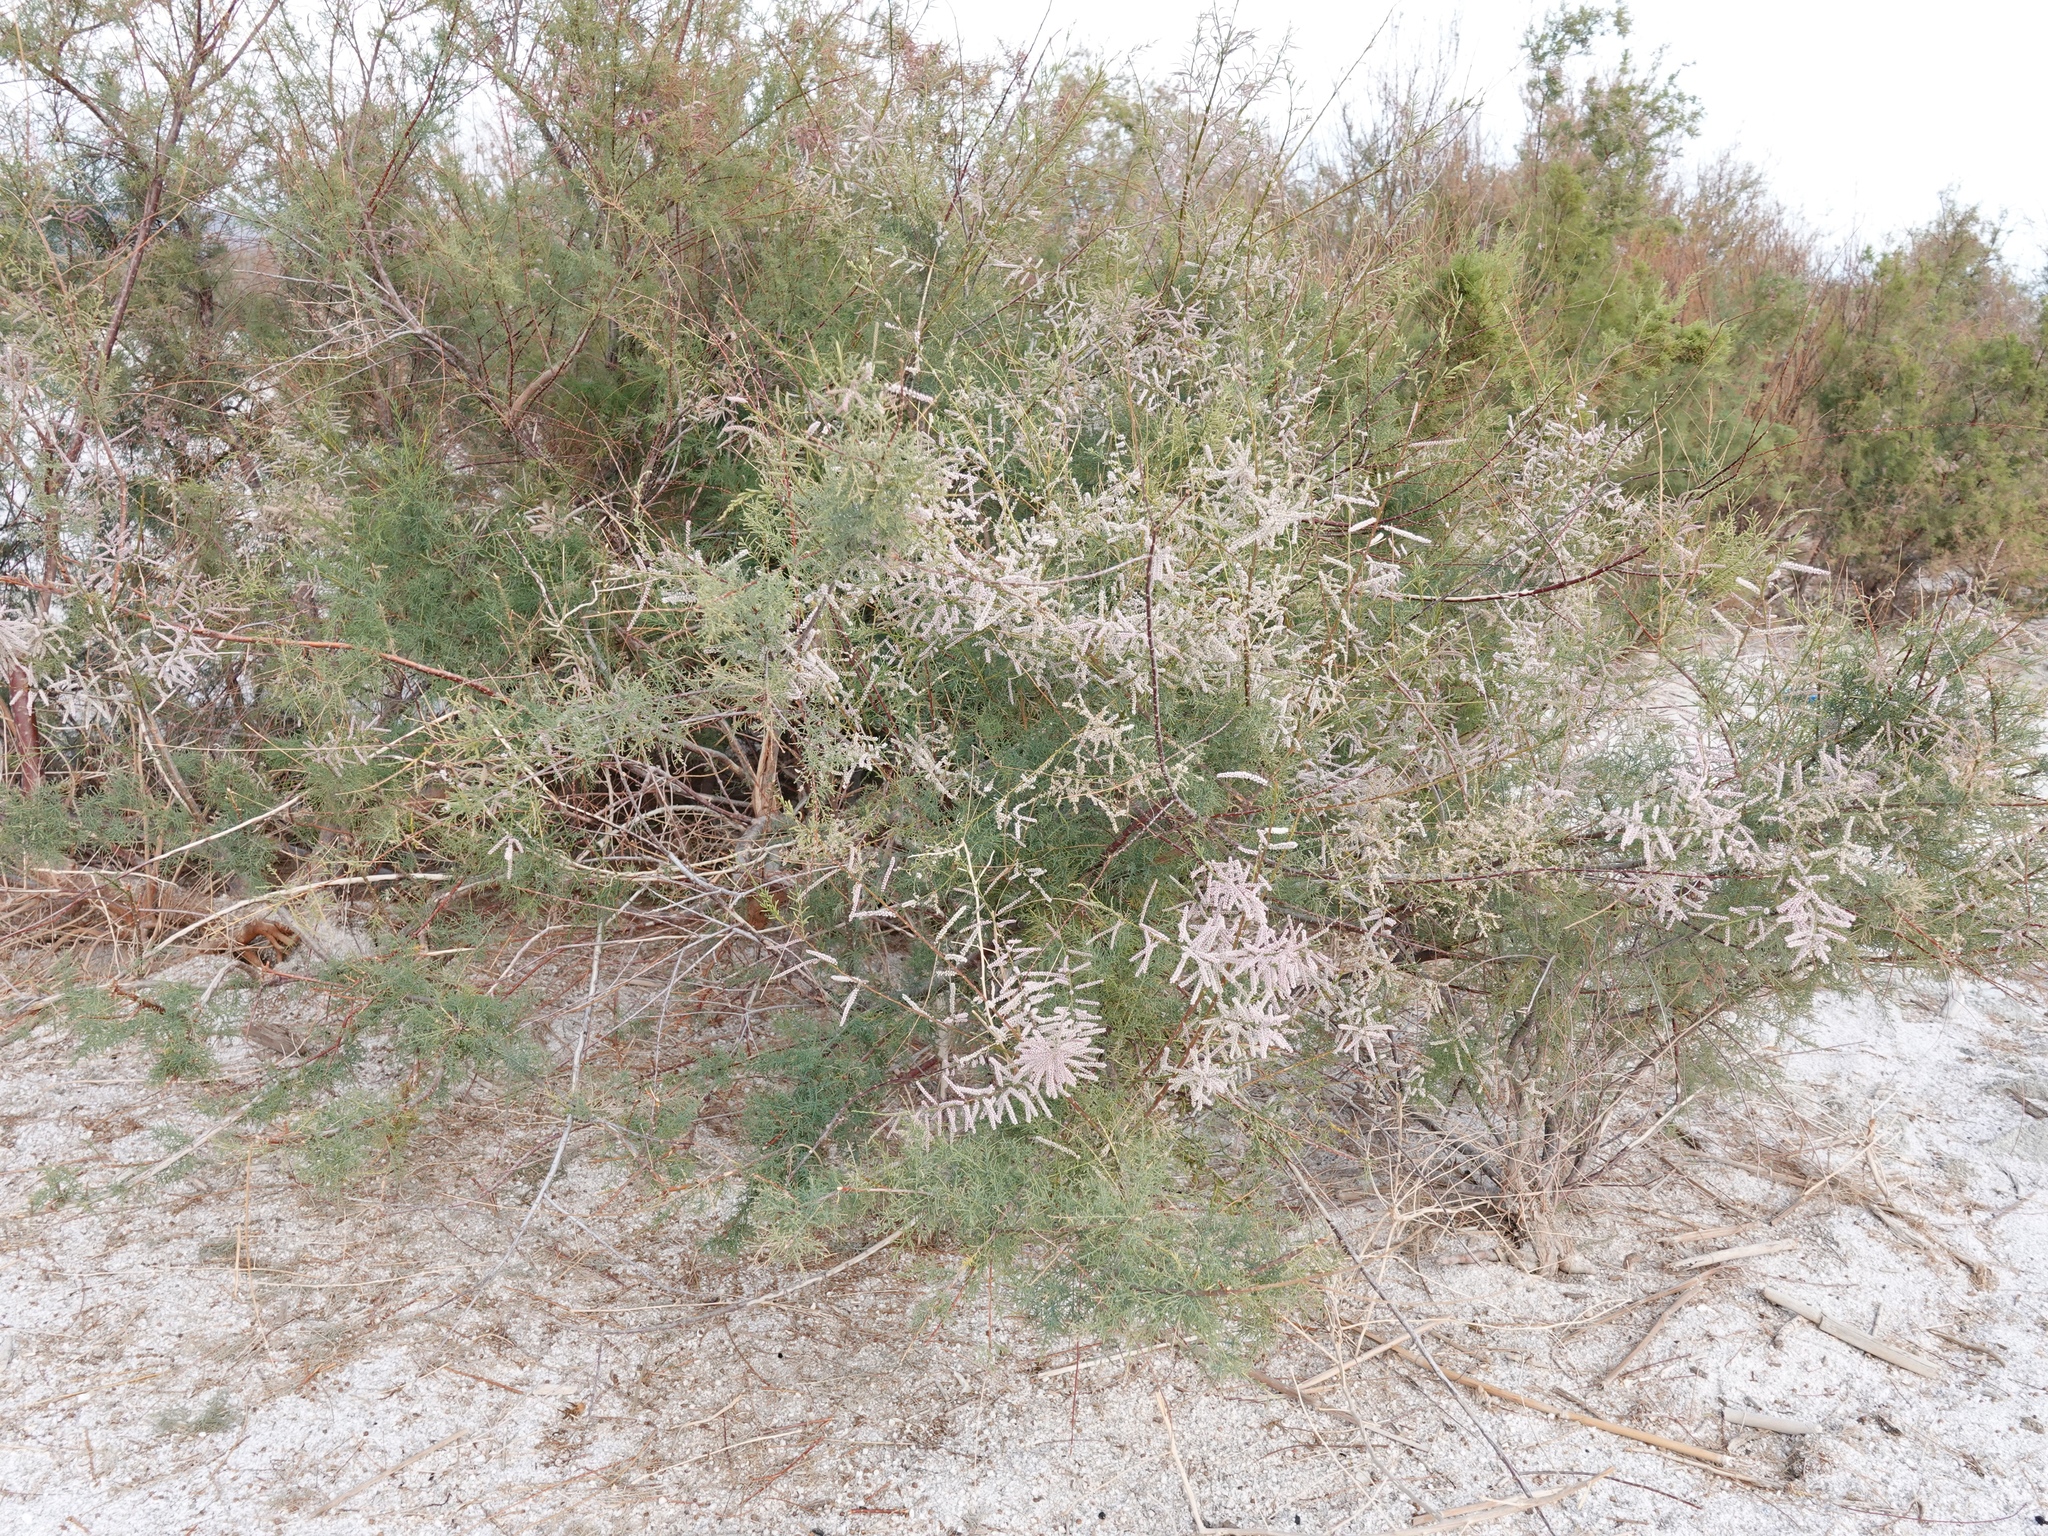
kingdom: Plantae
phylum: Tracheophyta
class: Magnoliopsida
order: Caryophyllales
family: Tamaricaceae
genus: Tamarix
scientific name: Tamarix ramosissima
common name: Pink tamarisk
